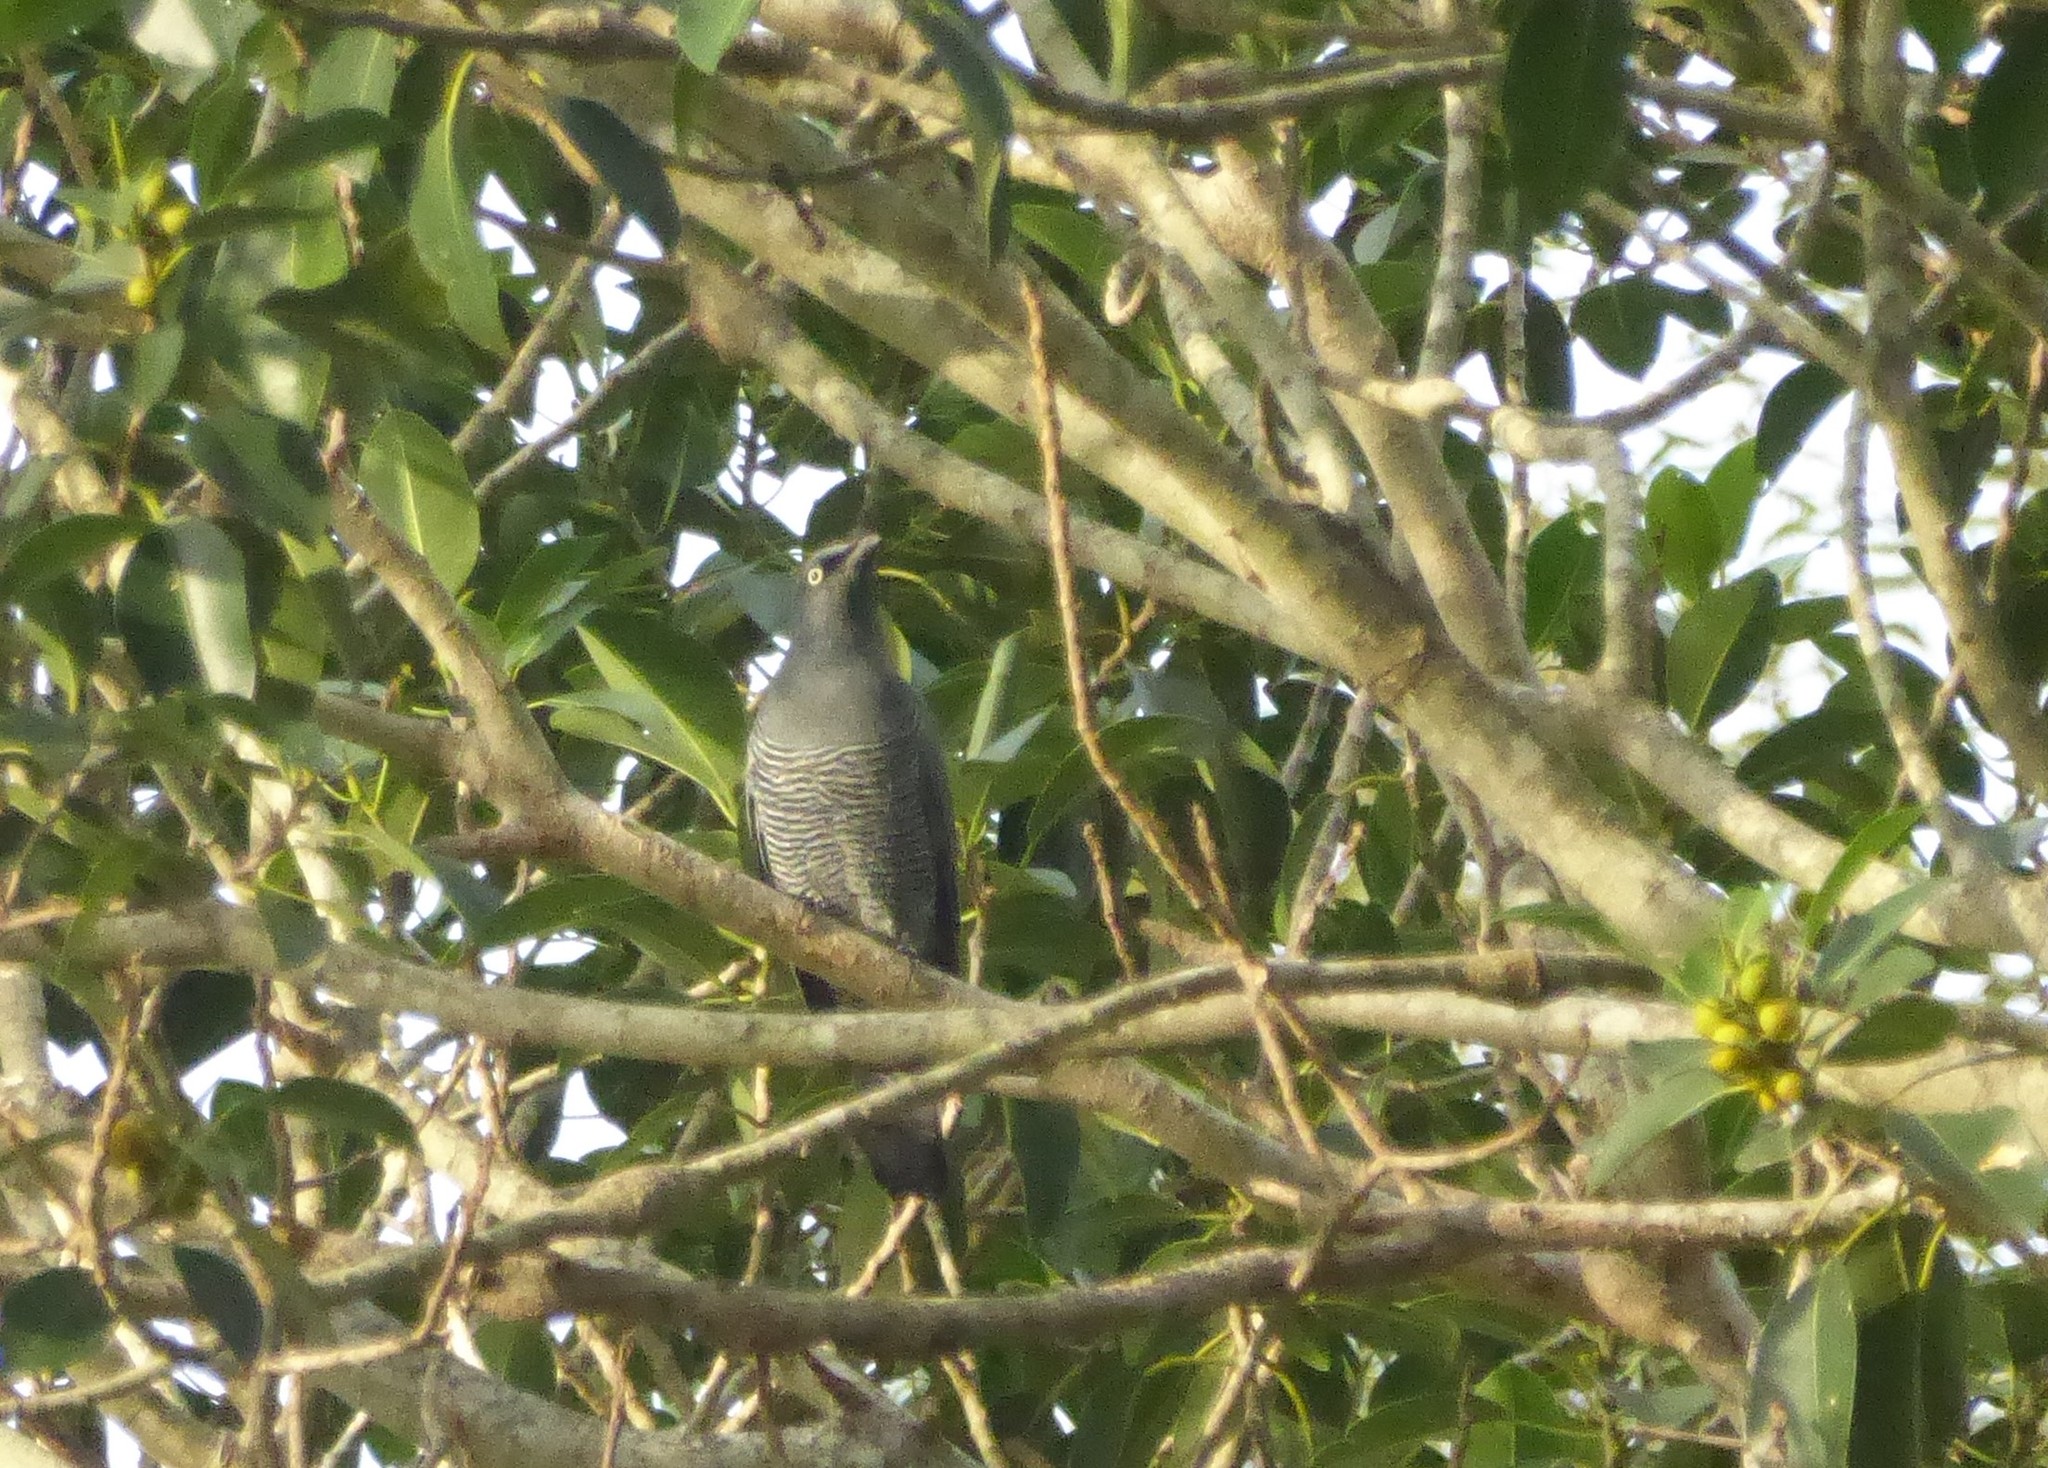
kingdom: Animalia
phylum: Chordata
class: Aves
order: Passeriformes
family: Campephagidae
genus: Coracina
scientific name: Coracina lineata
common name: Barred cuckooshrike
